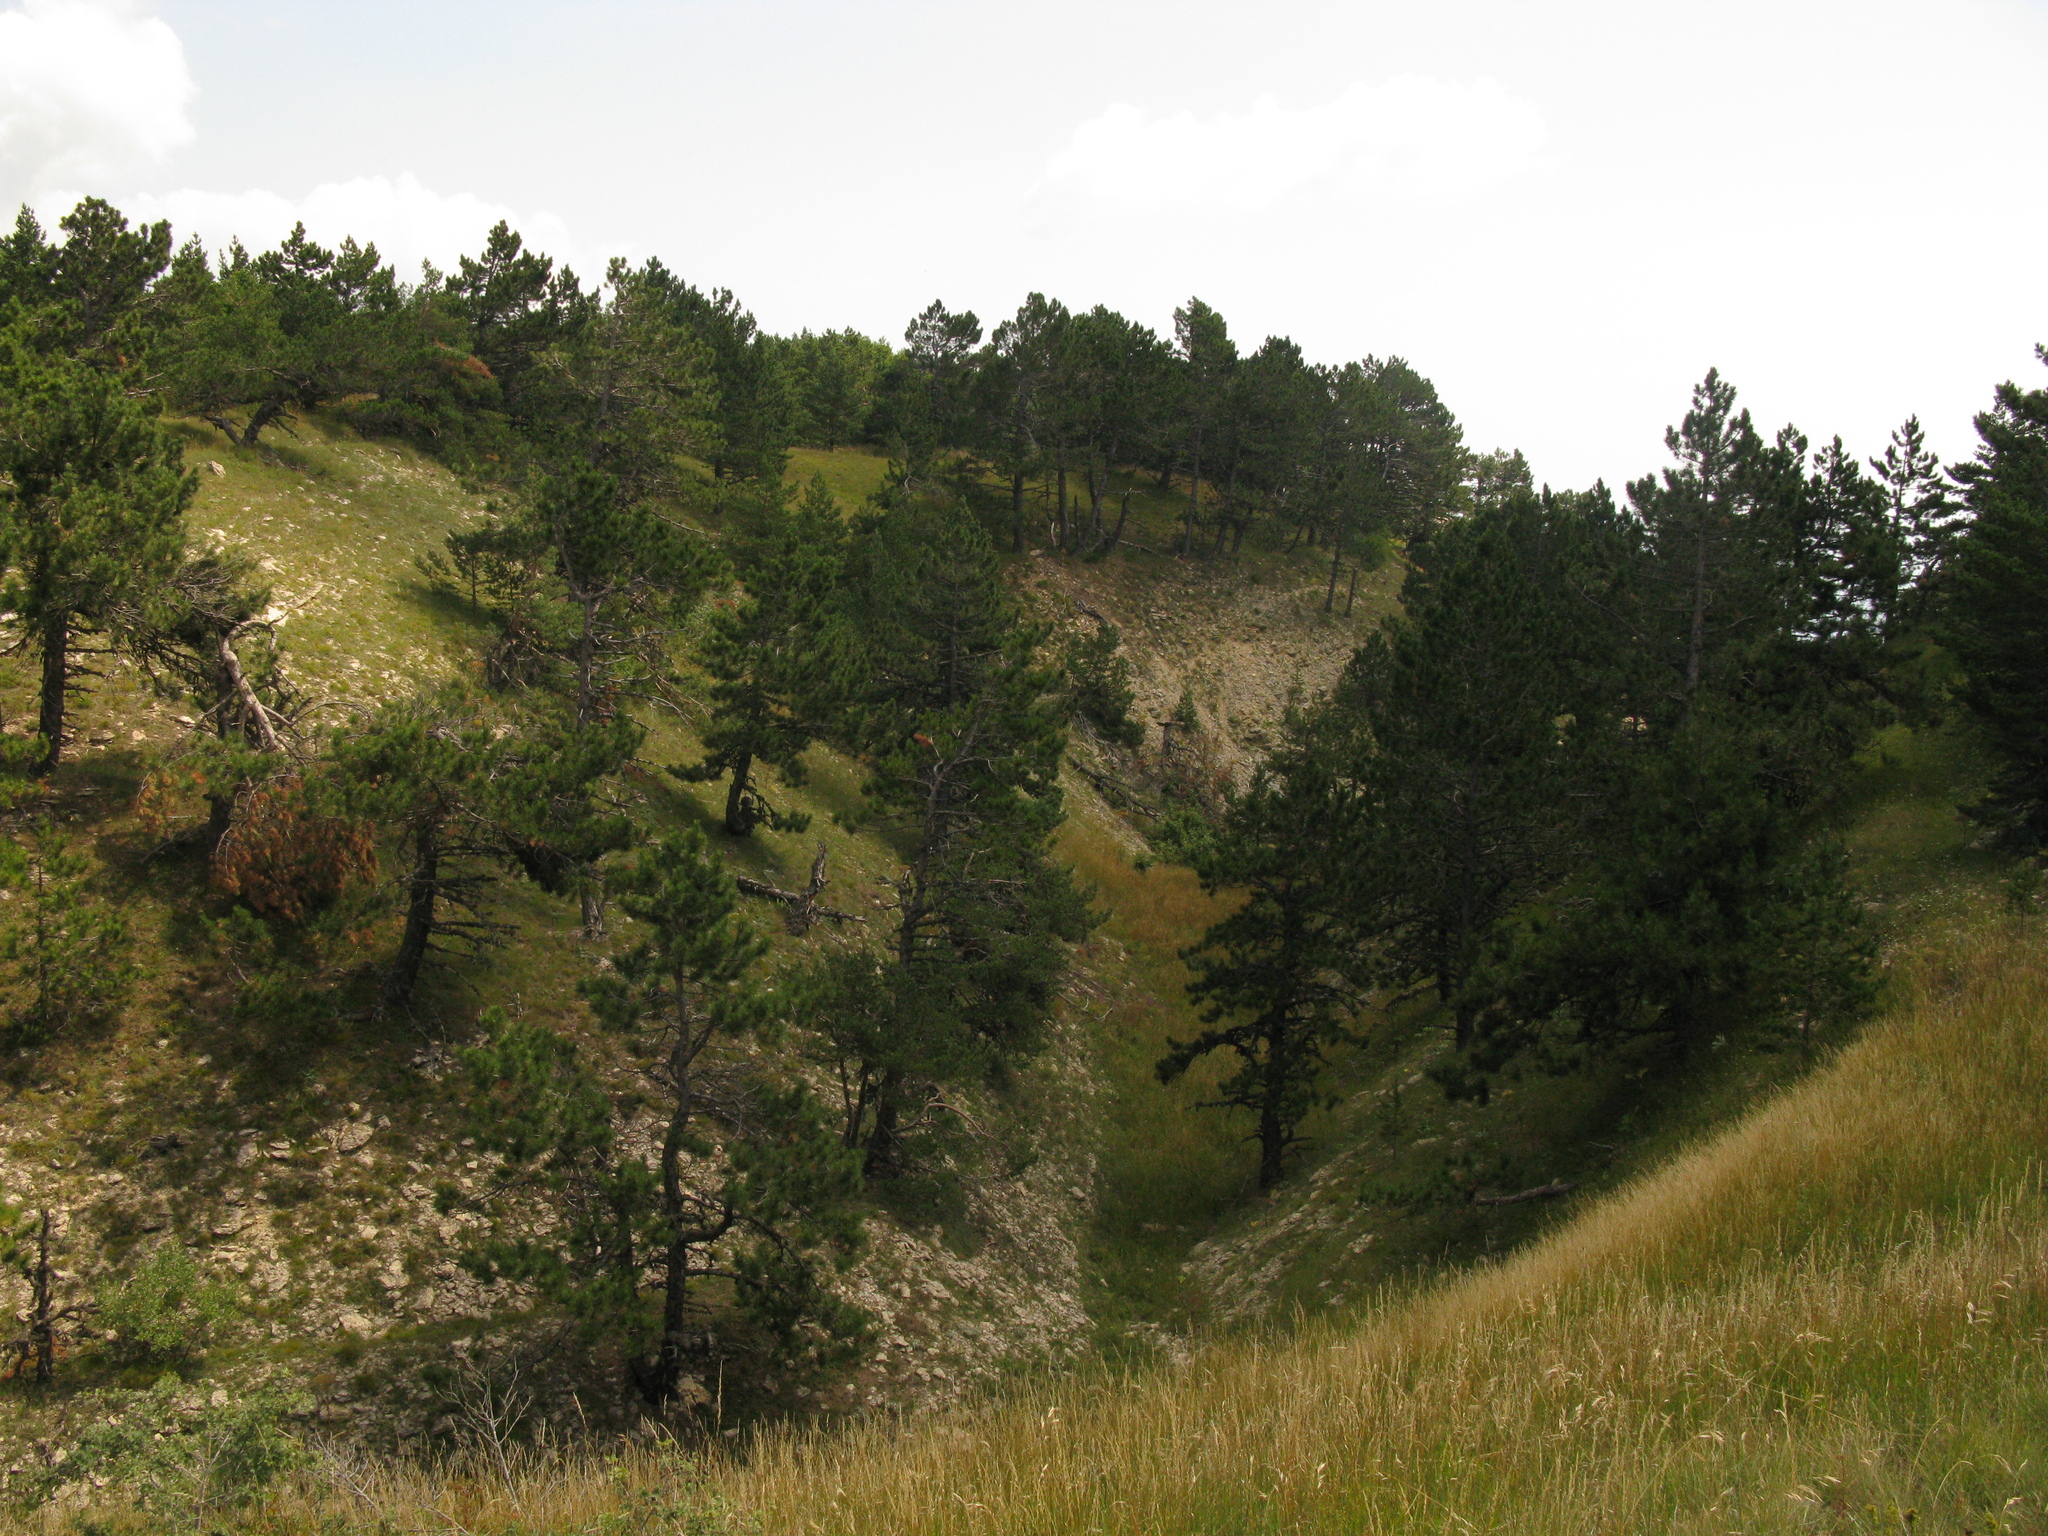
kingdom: Plantae
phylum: Tracheophyta
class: Pinopsida
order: Pinales
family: Pinaceae
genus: Pinus
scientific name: Pinus nigra
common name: Austrian pine
